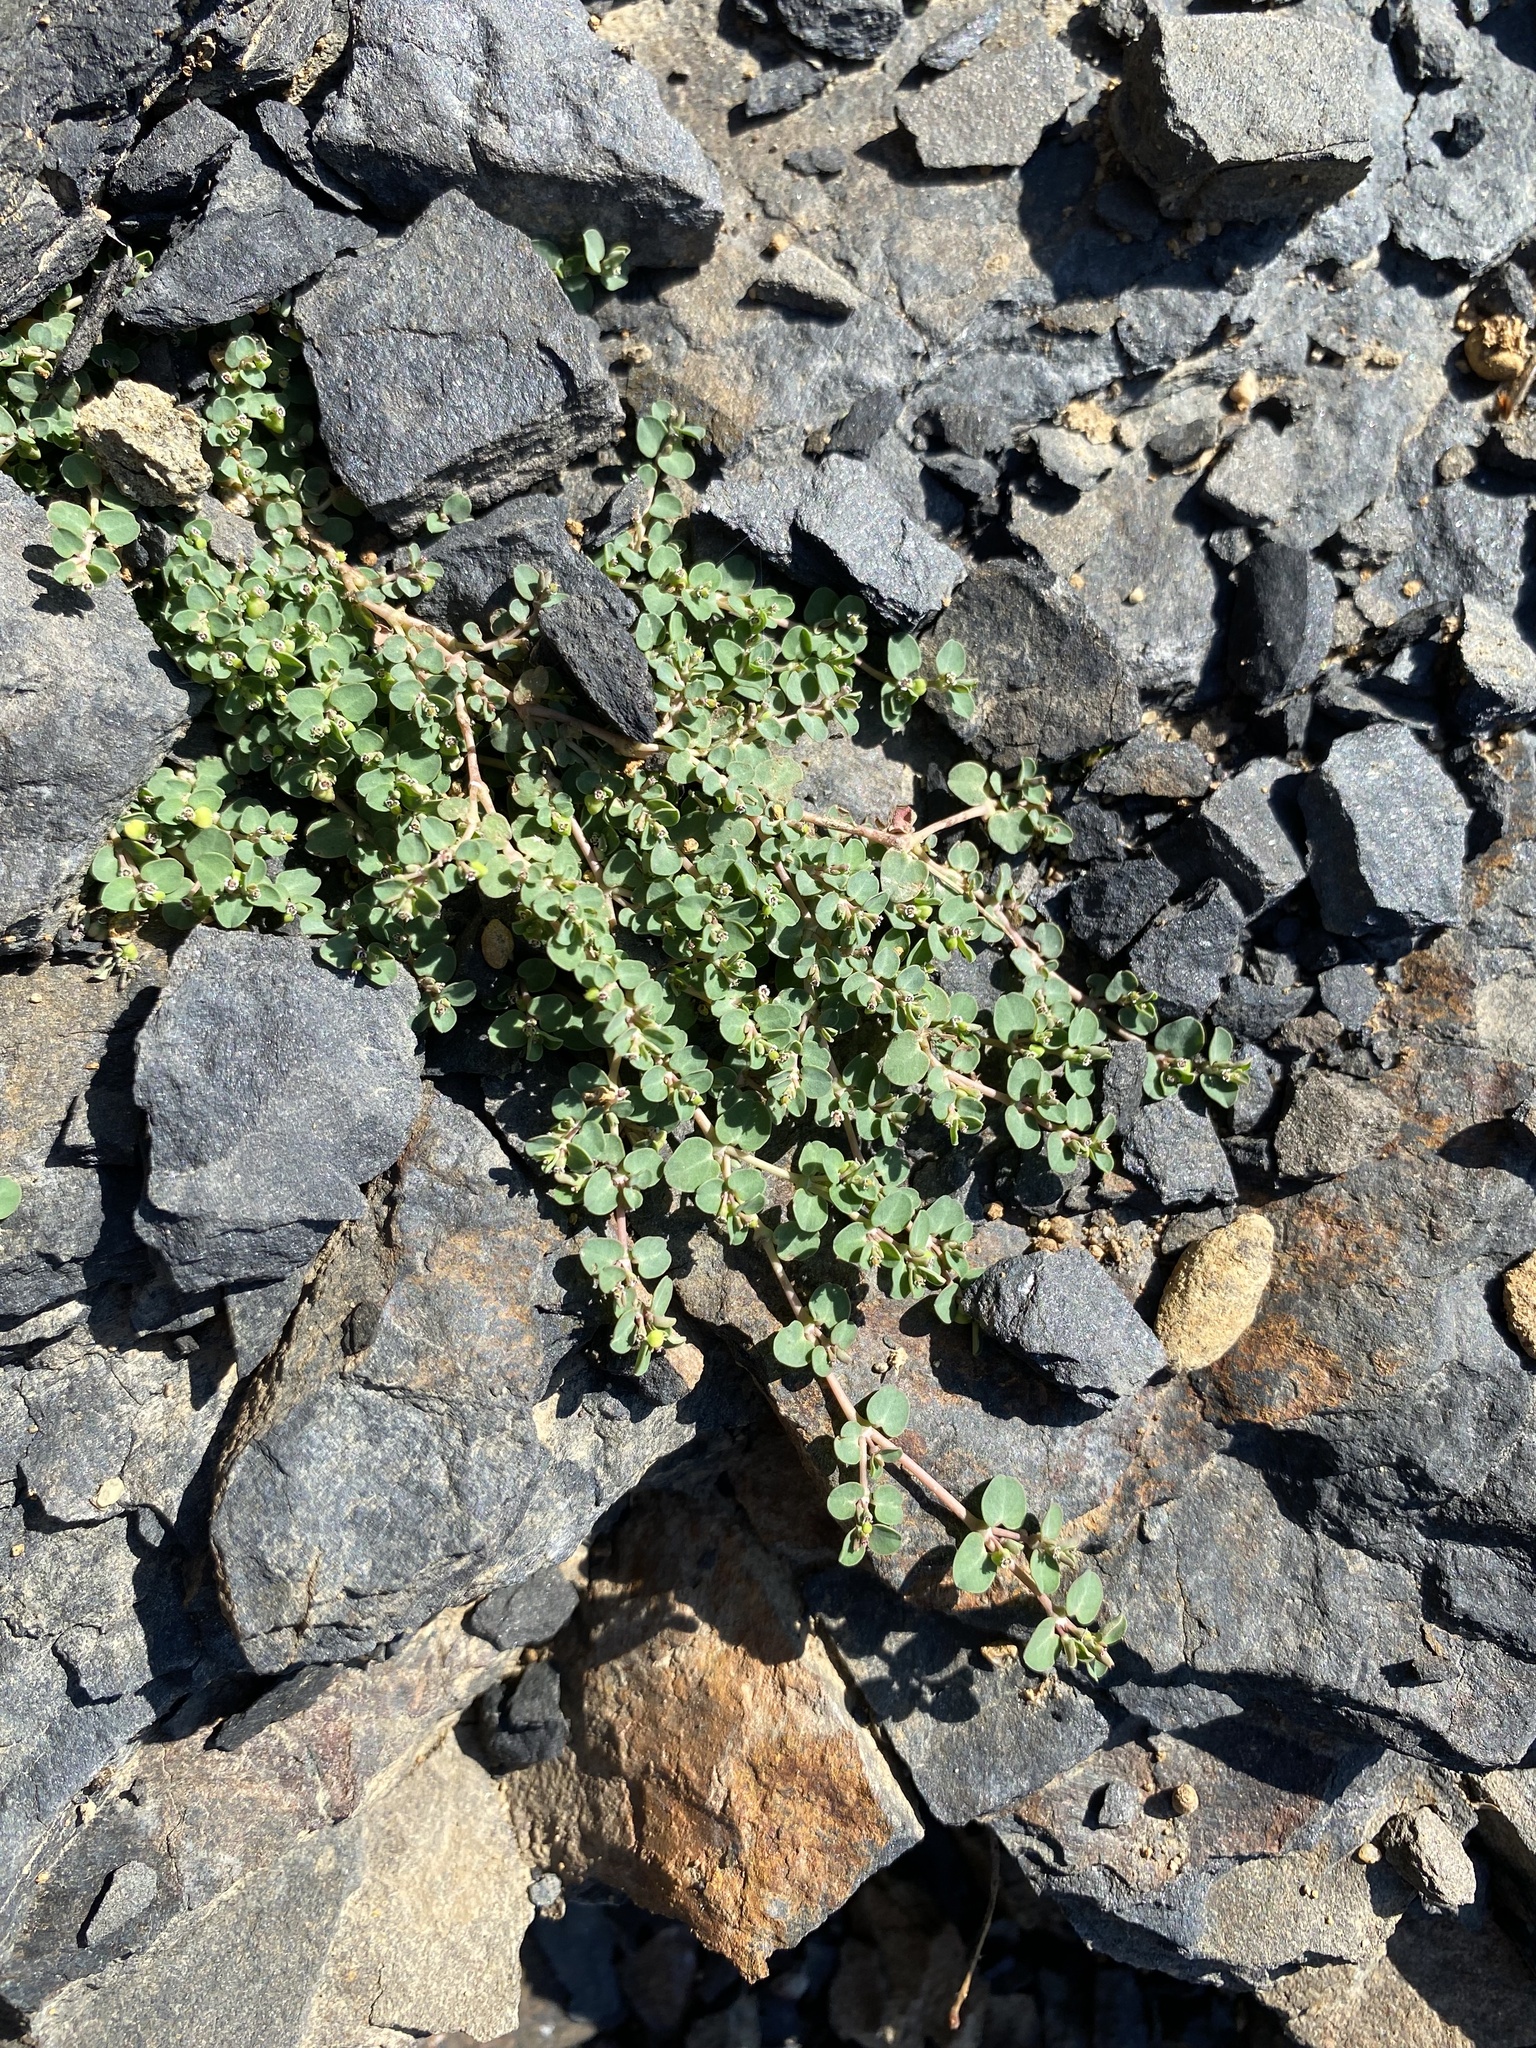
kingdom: Plantae
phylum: Tracheophyta
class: Magnoliopsida
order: Malpighiales
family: Euphorbiaceae
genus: Euphorbia
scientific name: Euphorbia serpens
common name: Matted sandmat
